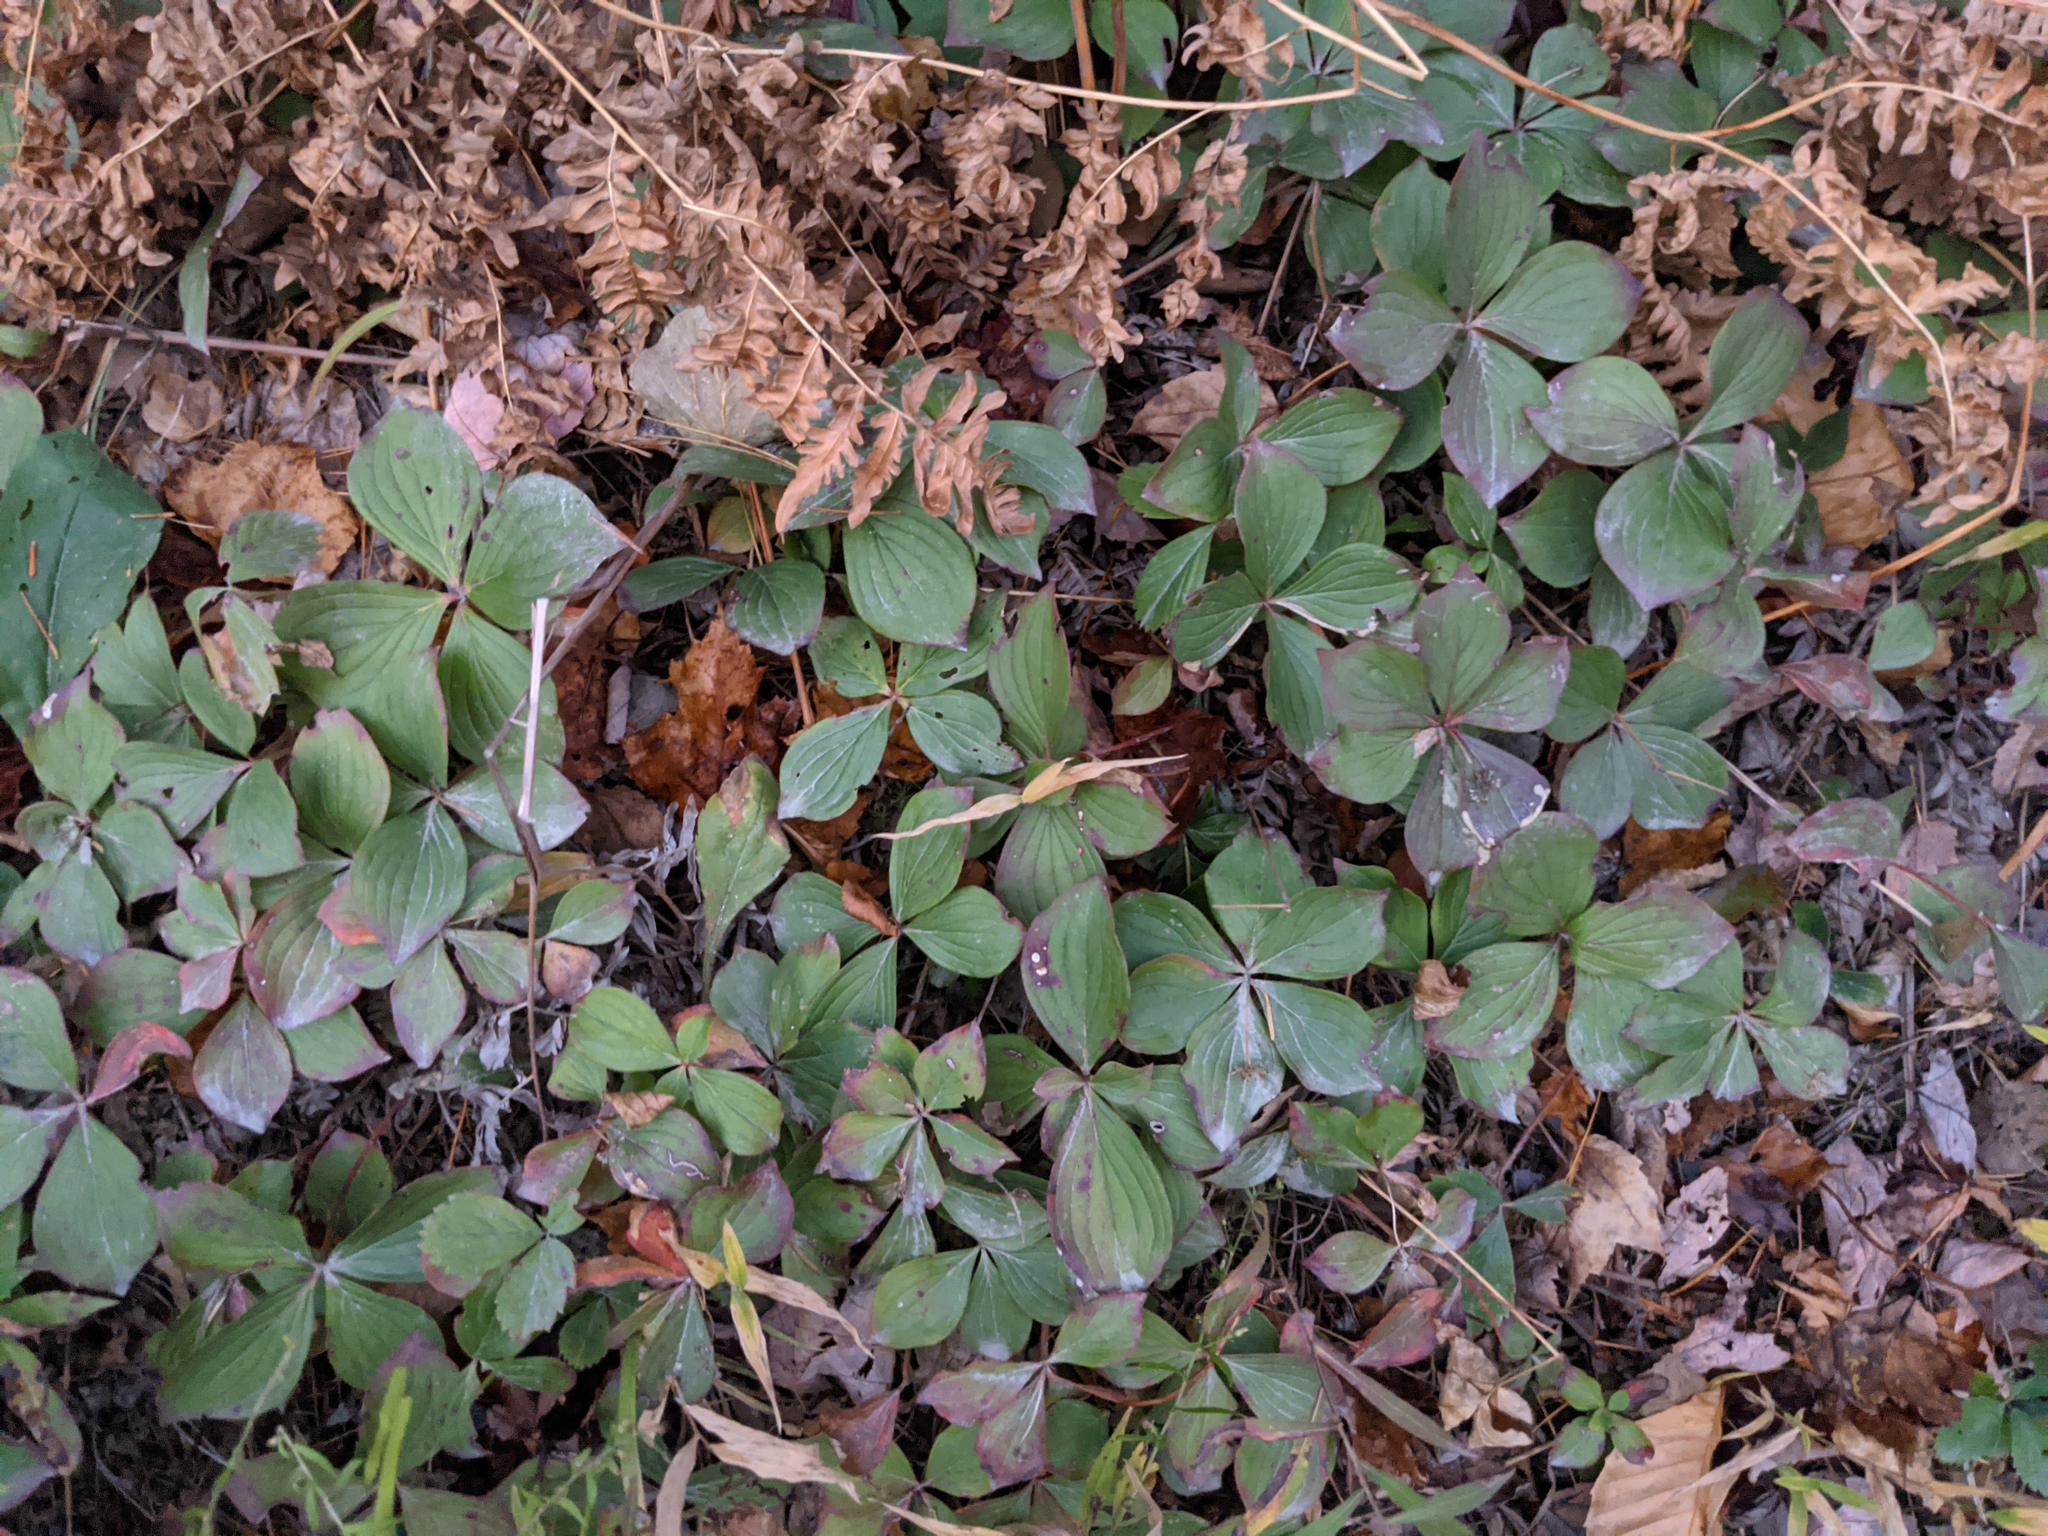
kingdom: Plantae
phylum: Tracheophyta
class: Magnoliopsida
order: Cornales
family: Cornaceae
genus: Cornus
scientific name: Cornus canadensis
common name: Creeping dogwood
